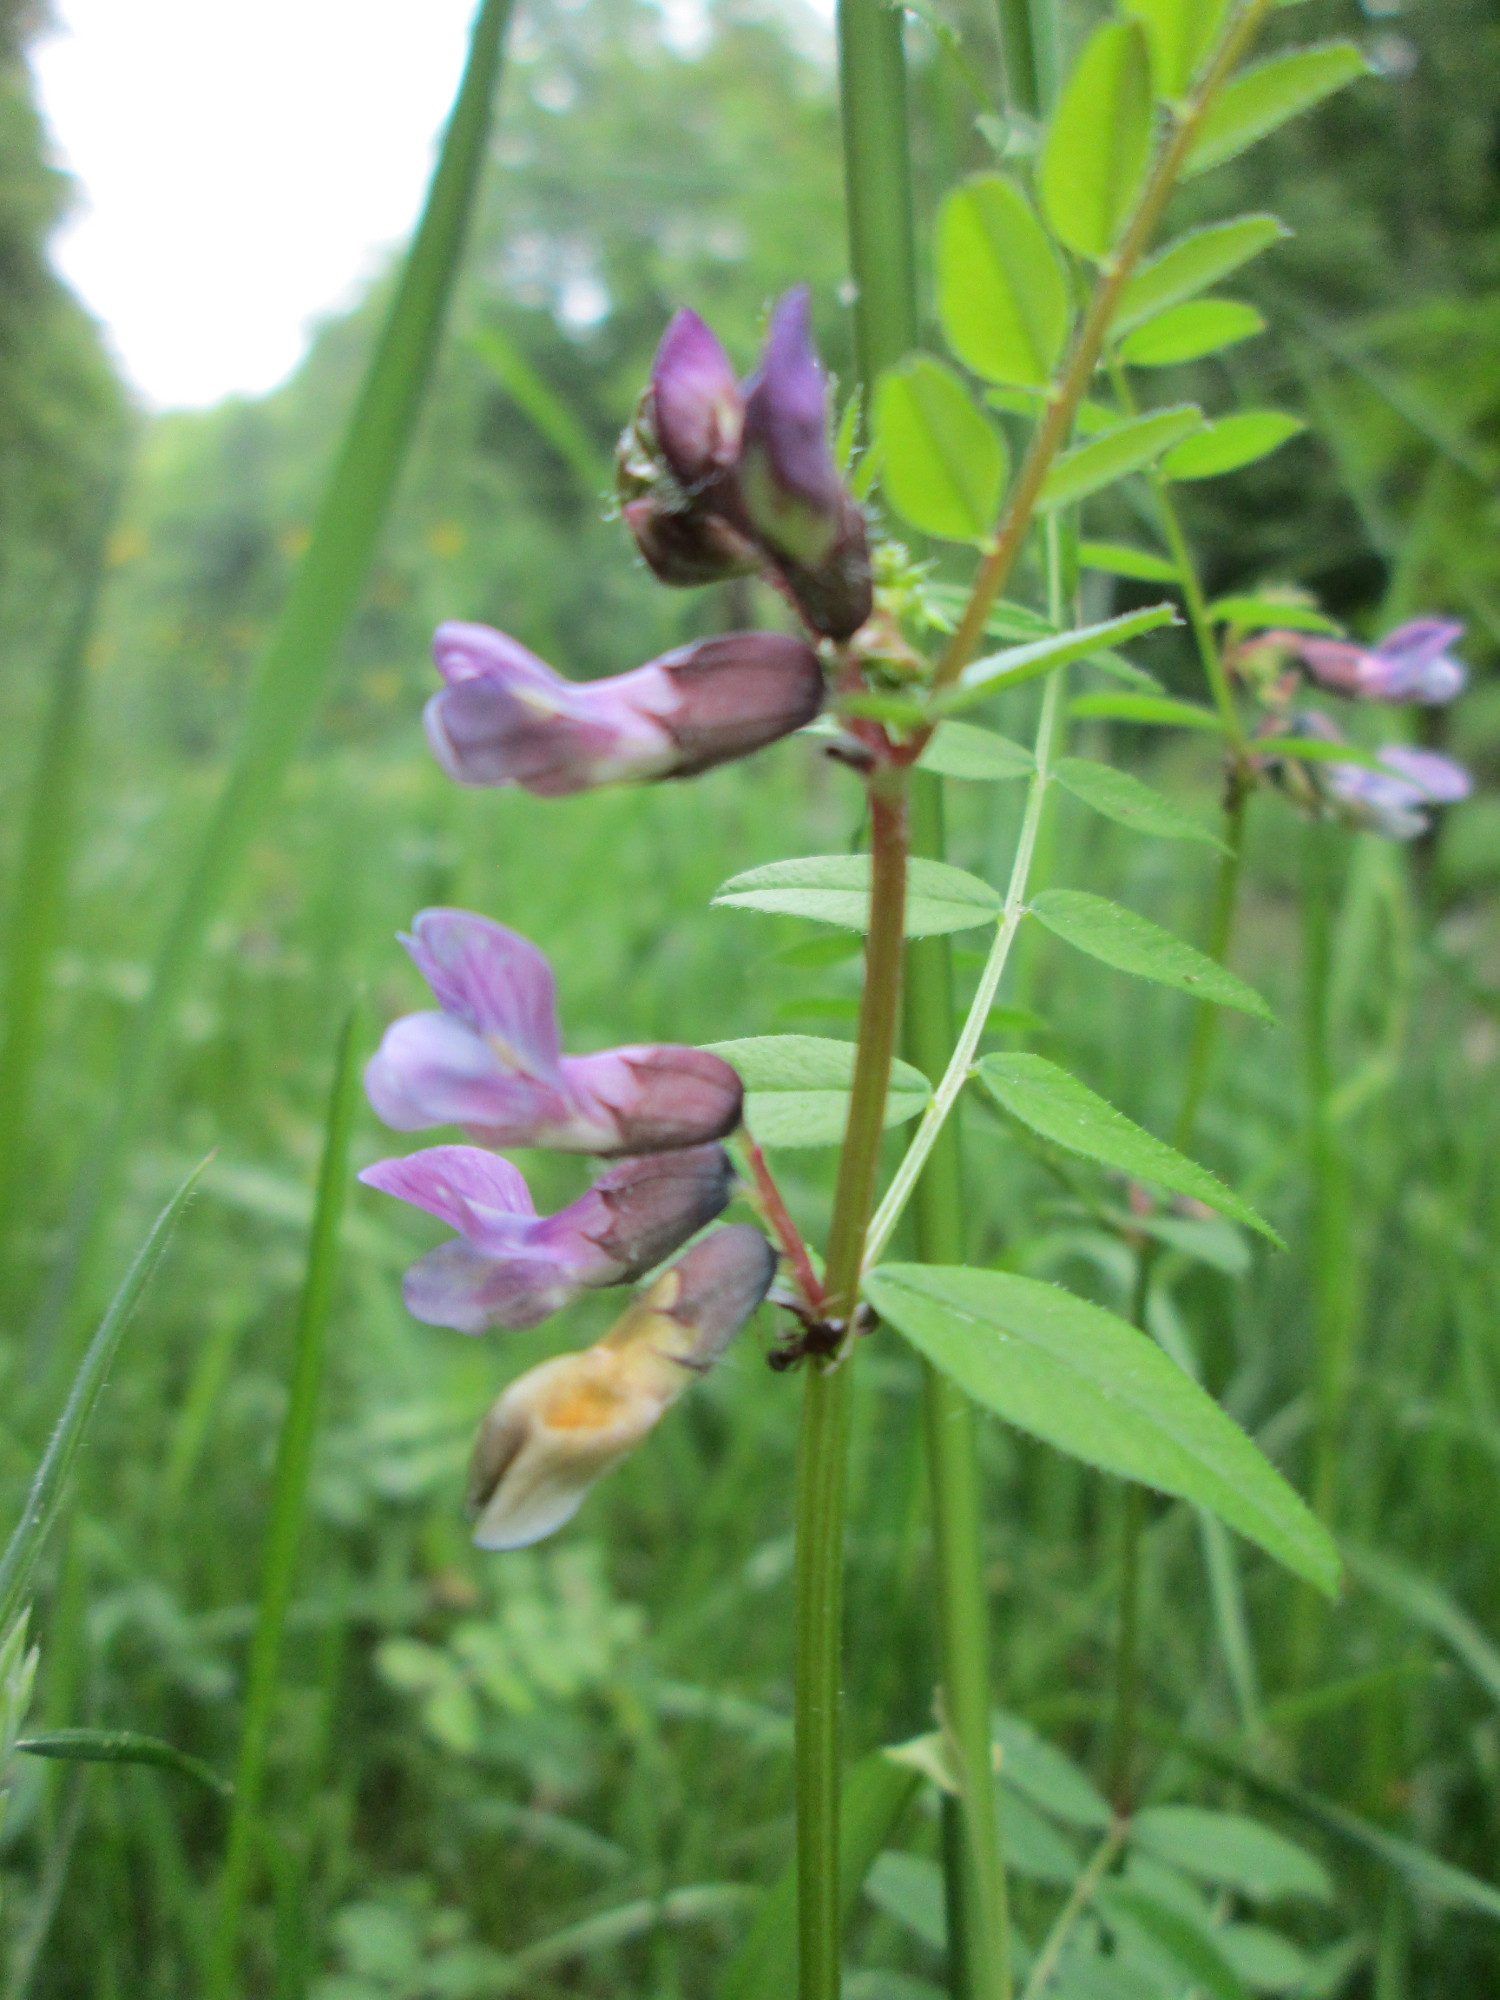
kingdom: Plantae
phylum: Tracheophyta
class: Magnoliopsida
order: Fabales
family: Fabaceae
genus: Vicia
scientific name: Vicia sepium
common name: Bush vetch
